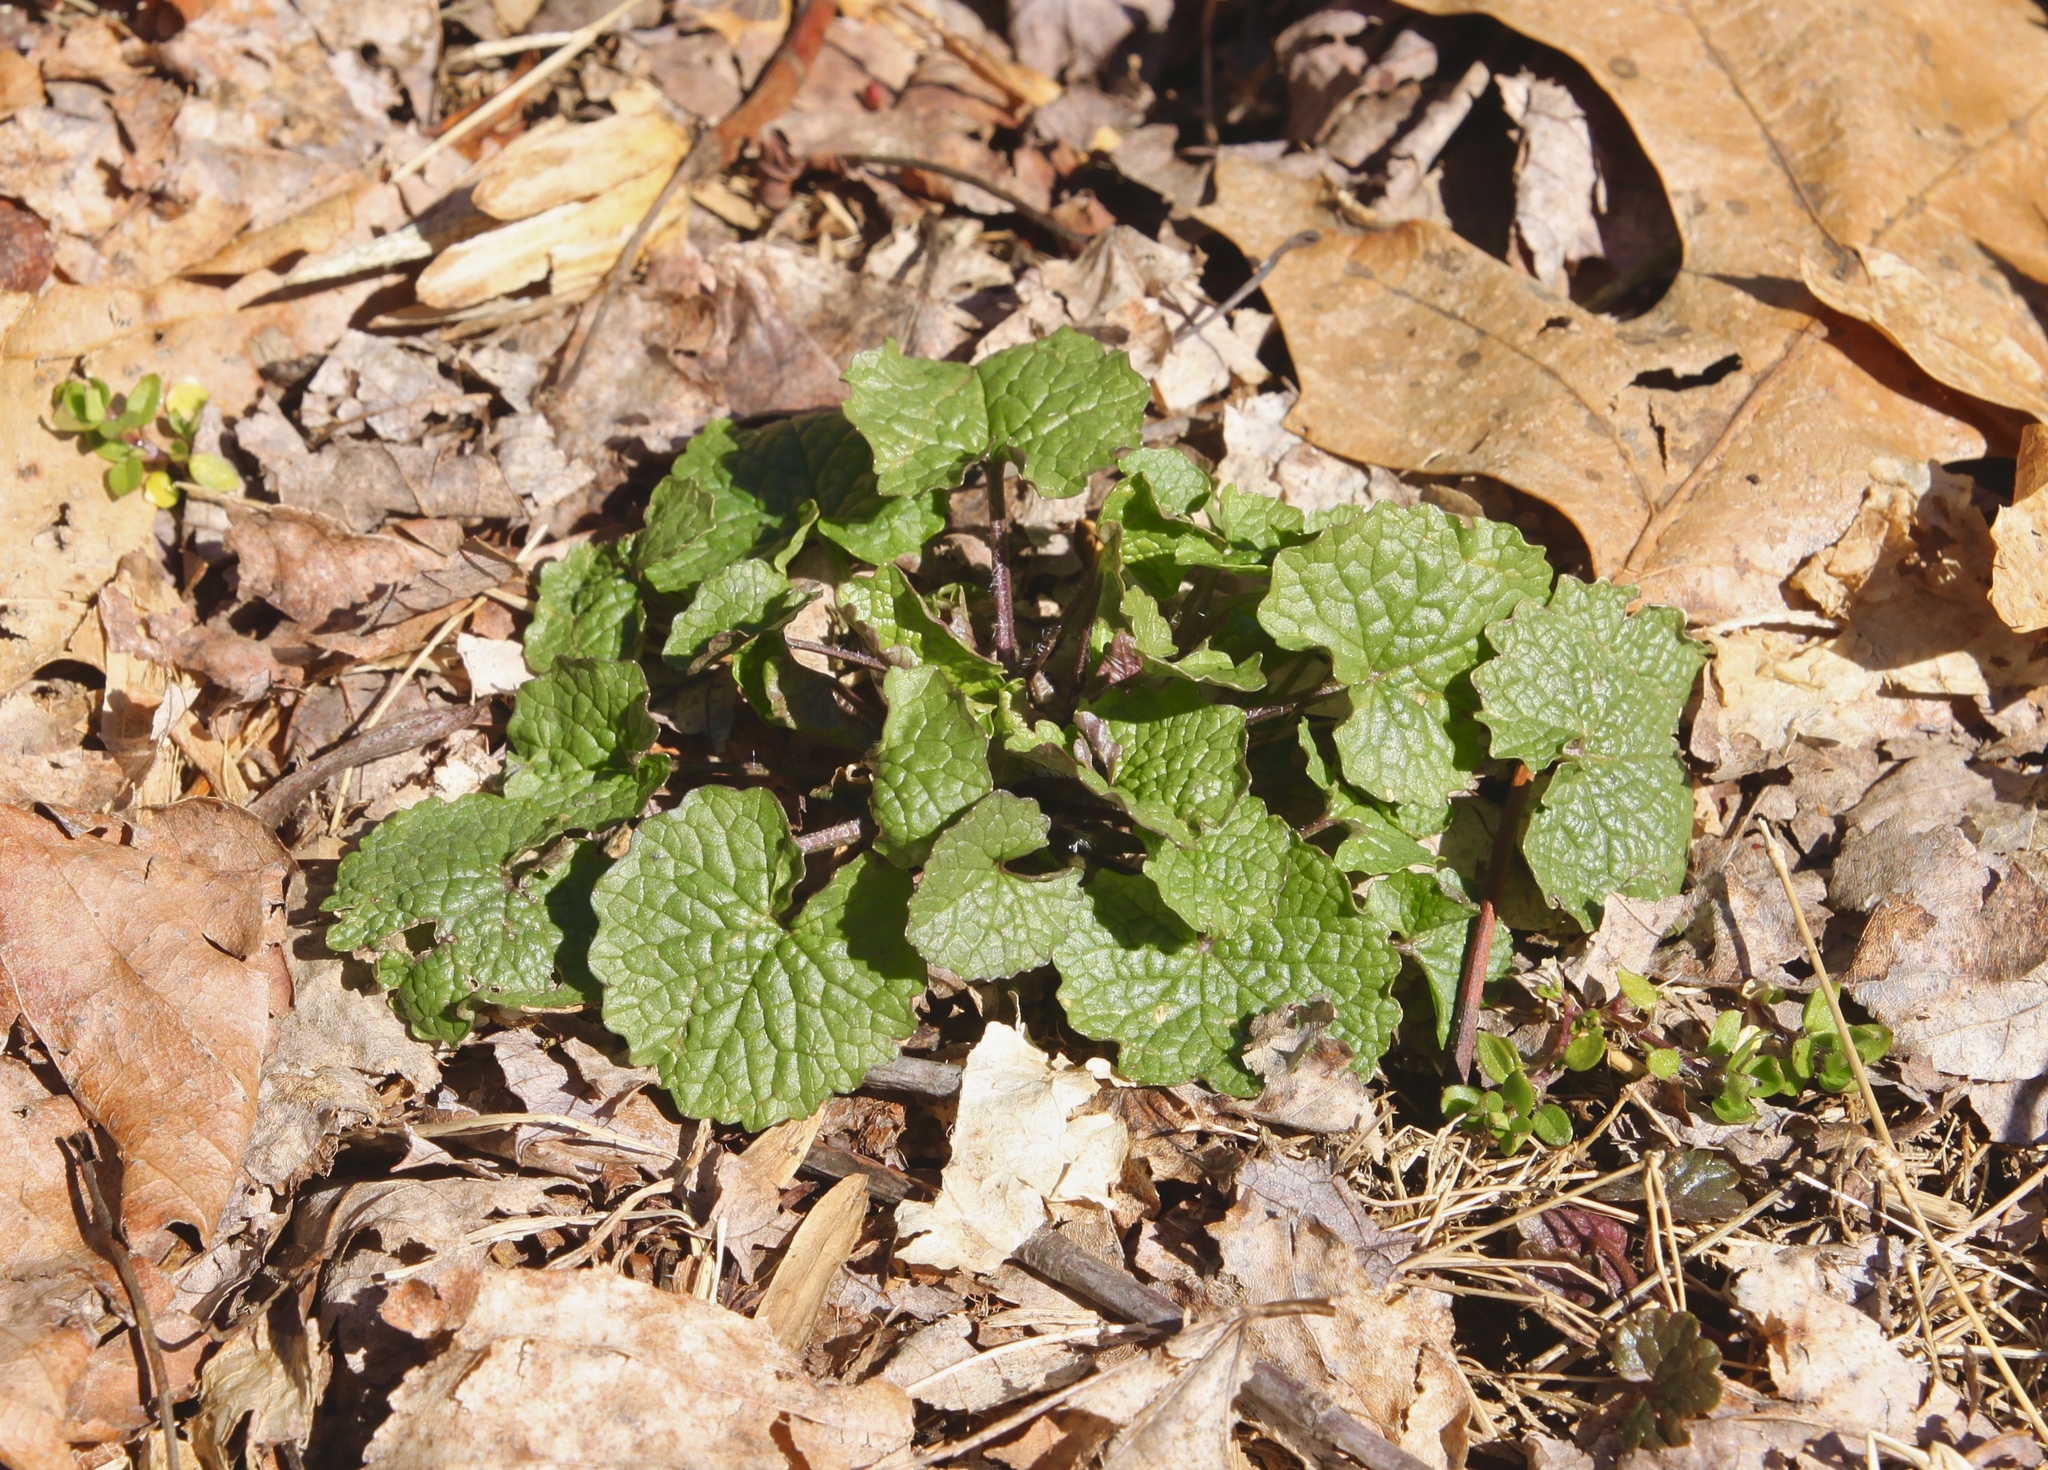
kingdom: Plantae
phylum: Tracheophyta
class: Magnoliopsida
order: Brassicales
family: Brassicaceae
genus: Alliaria
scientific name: Alliaria petiolata
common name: Garlic mustard
